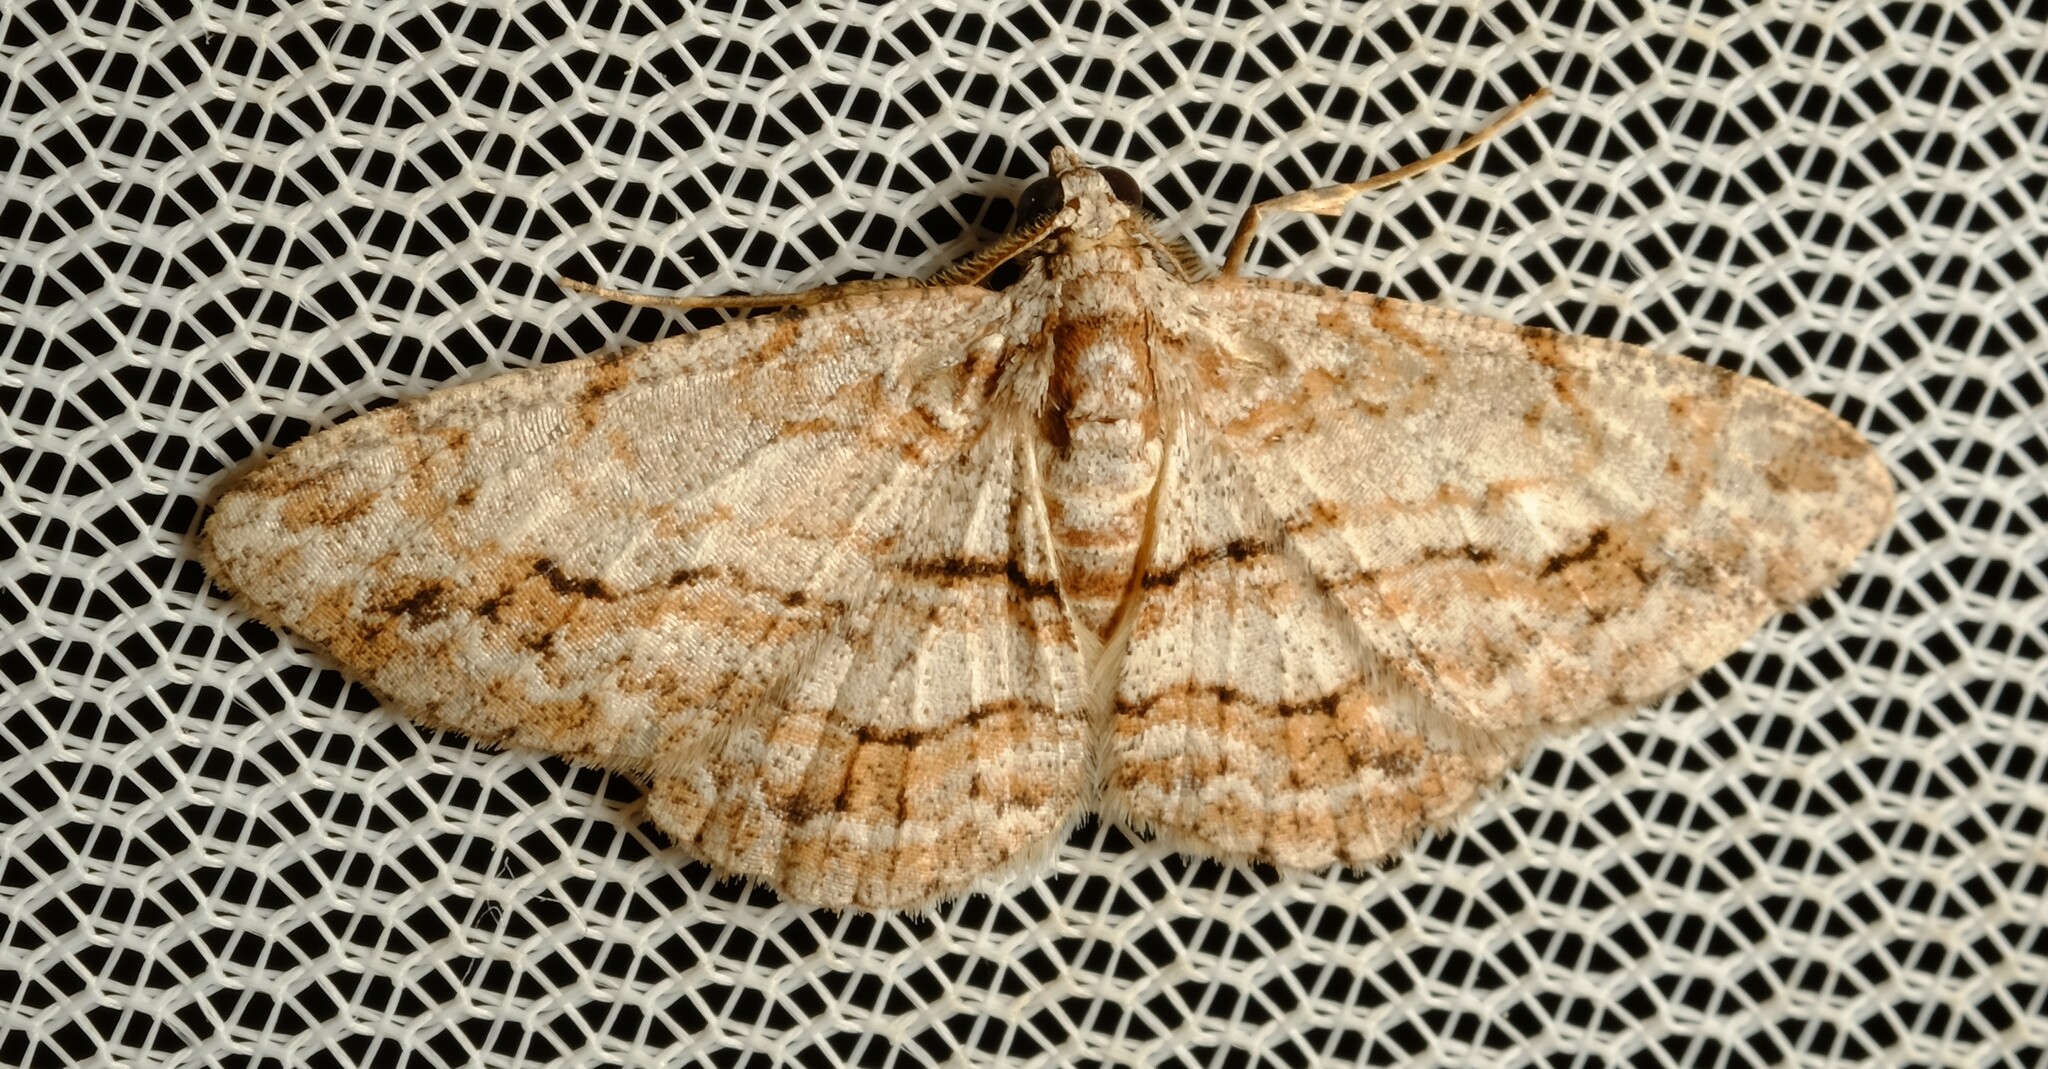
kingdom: Animalia
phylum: Arthropoda
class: Insecta
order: Lepidoptera
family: Geometridae
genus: Didymoctenia
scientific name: Didymoctenia exsuperata
